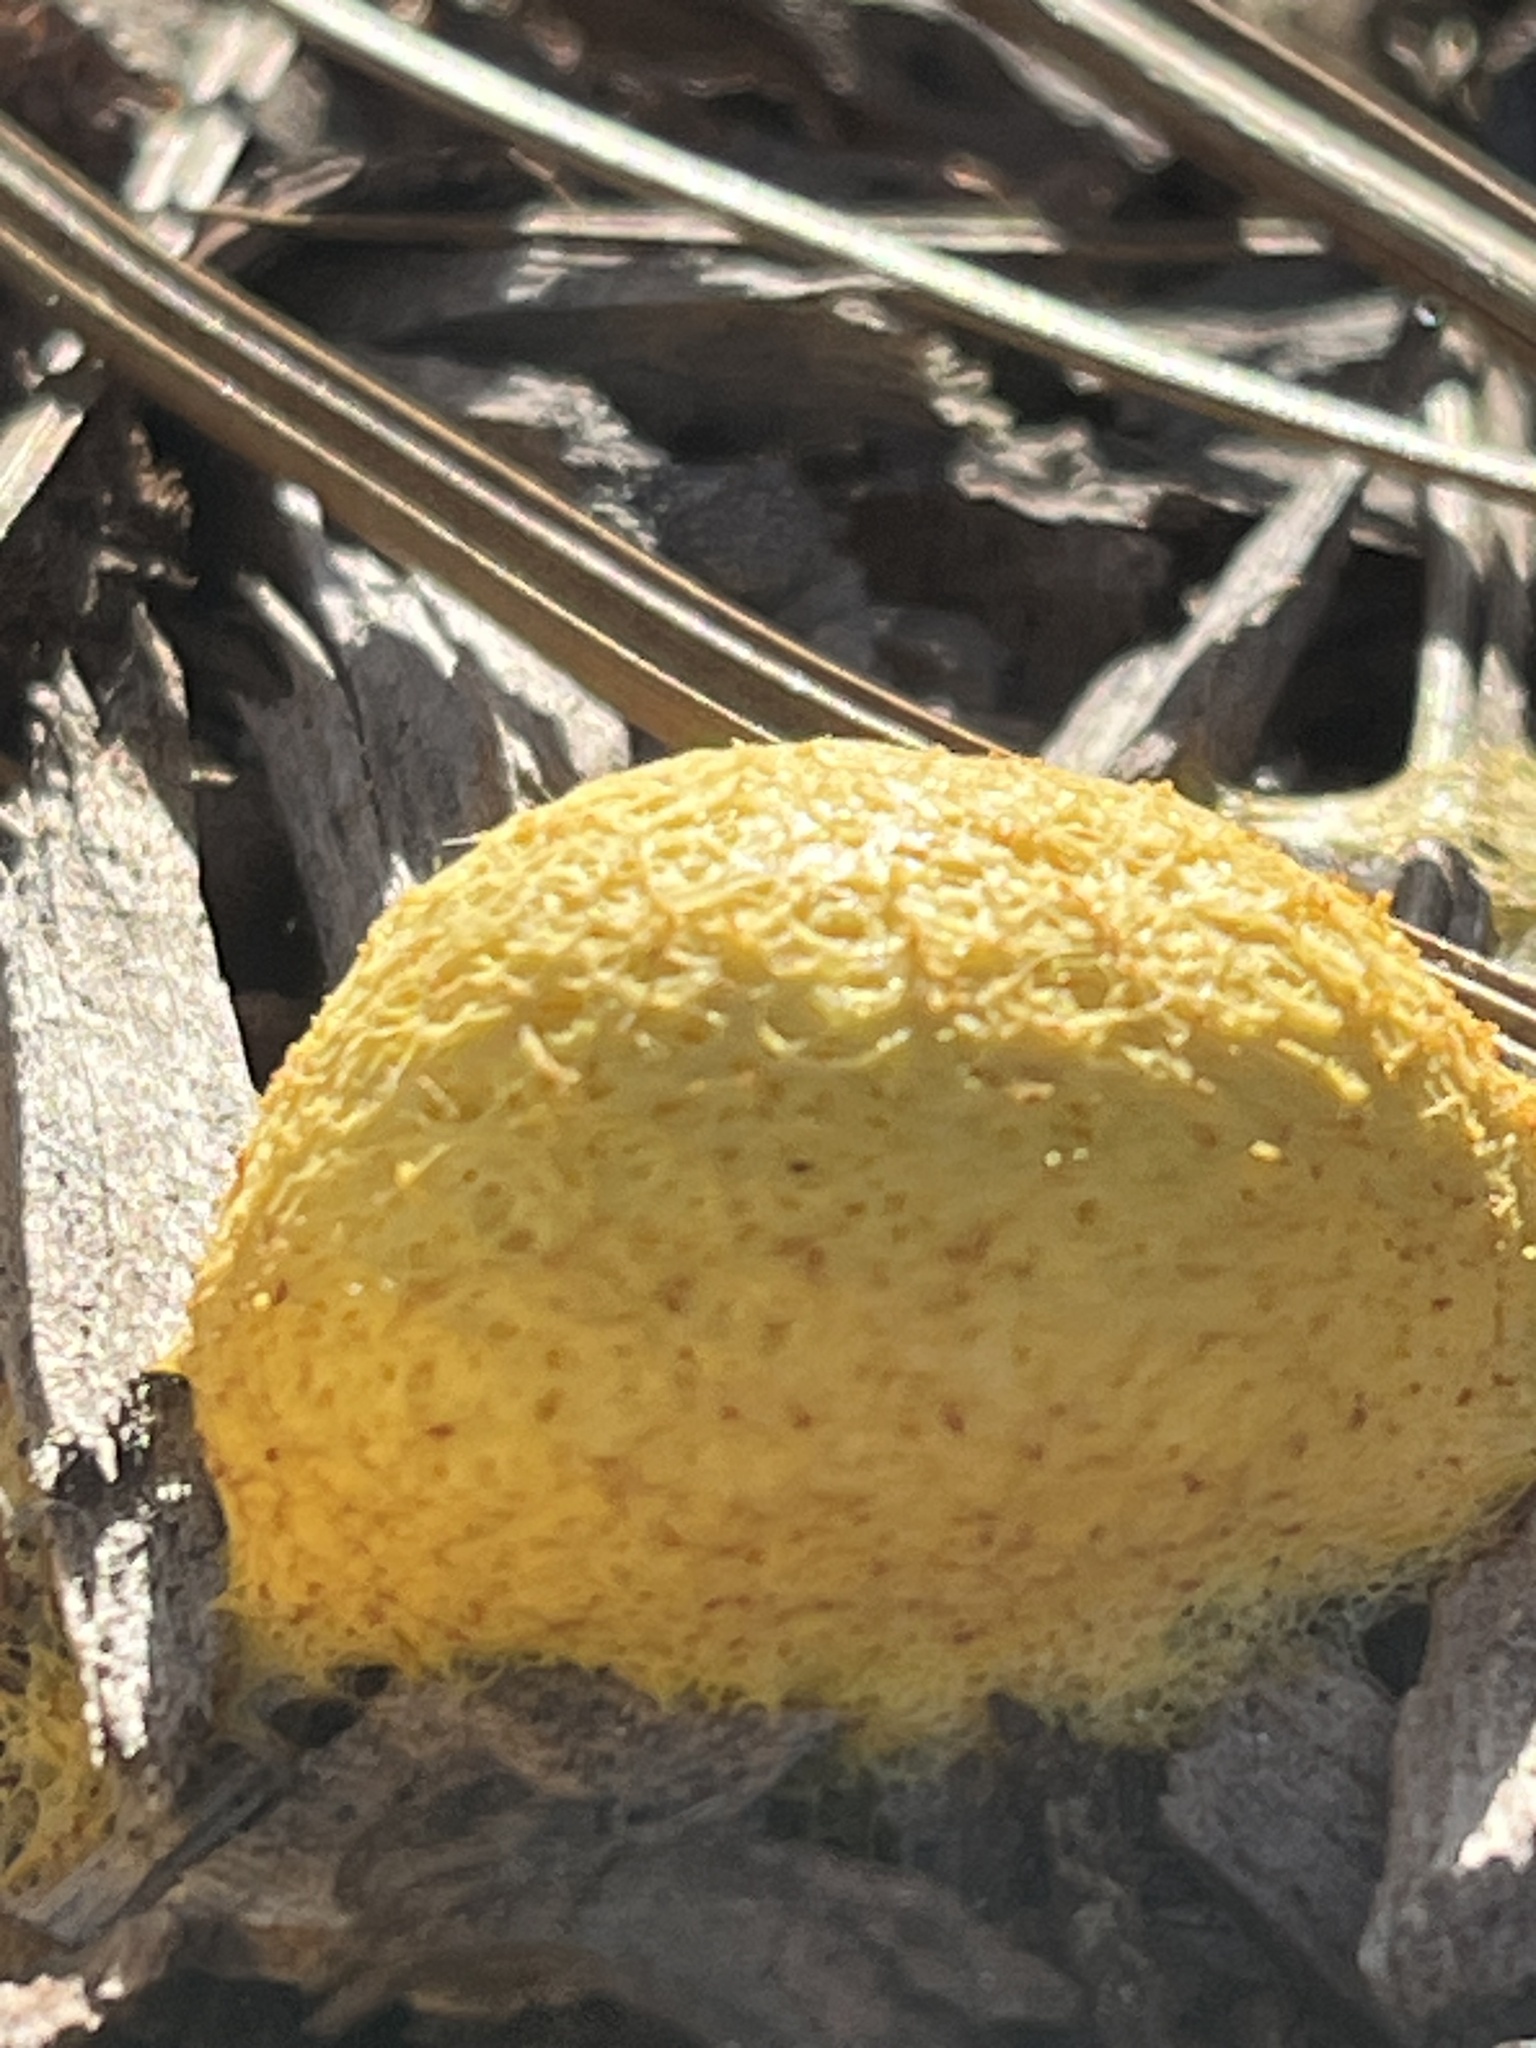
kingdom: Protozoa
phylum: Mycetozoa
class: Myxomycetes
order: Physarales
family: Physaraceae
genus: Fuligo
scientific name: Fuligo septica
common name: Dog vomit slime mold
